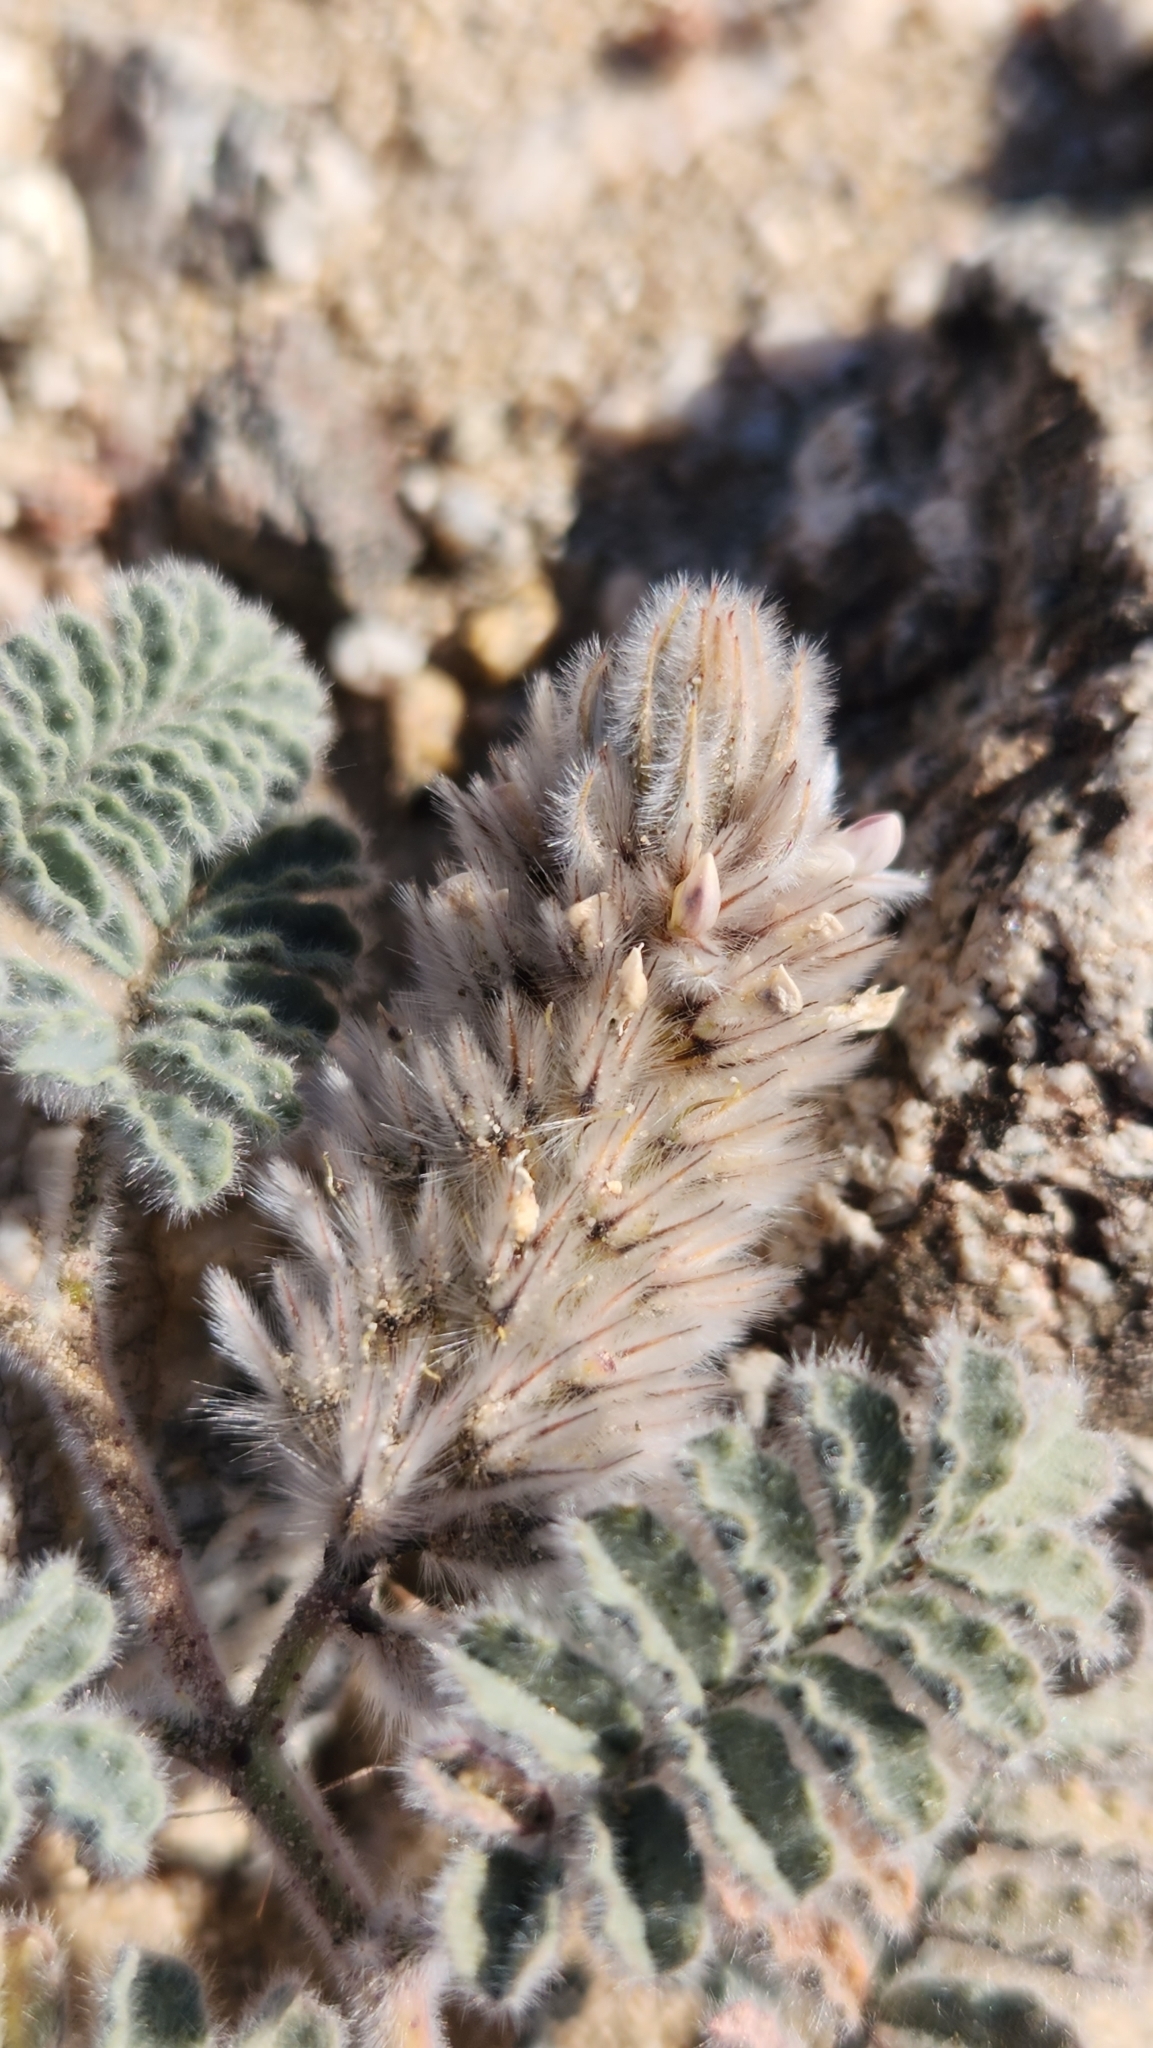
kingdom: Plantae
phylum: Tracheophyta
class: Magnoliopsida
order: Fabales
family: Fabaceae
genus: Dalea
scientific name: Dalea mollissima
